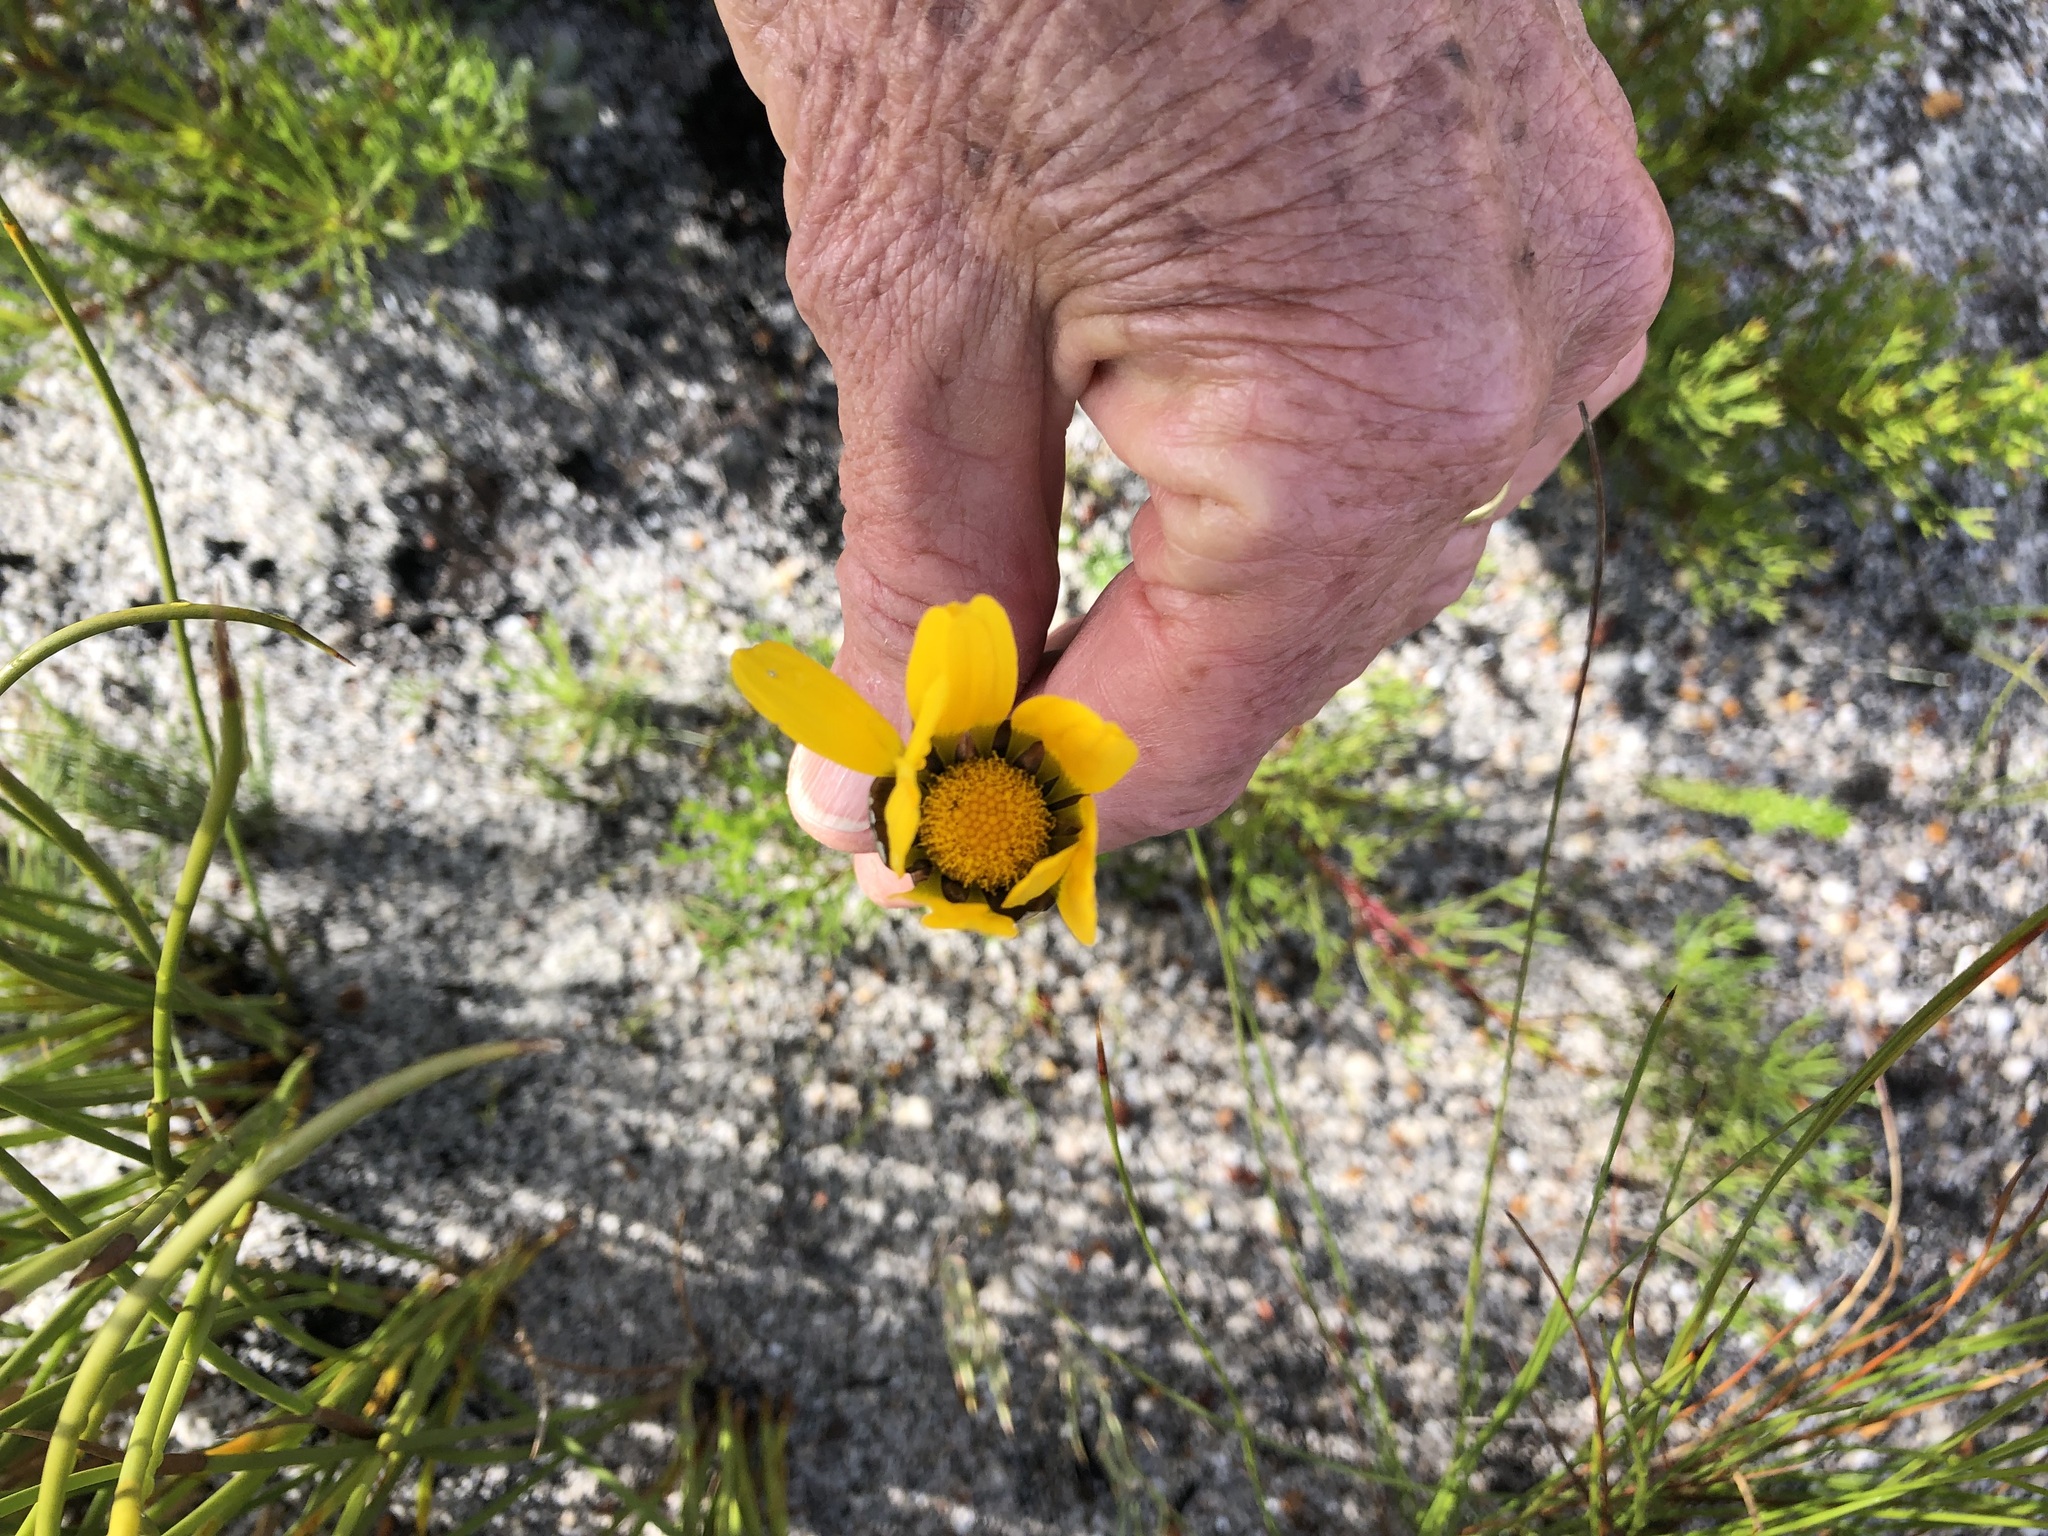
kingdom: Plantae
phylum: Tracheophyta
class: Magnoliopsida
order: Asterales
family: Asteraceae
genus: Ursinia
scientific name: Ursinia paleacea
